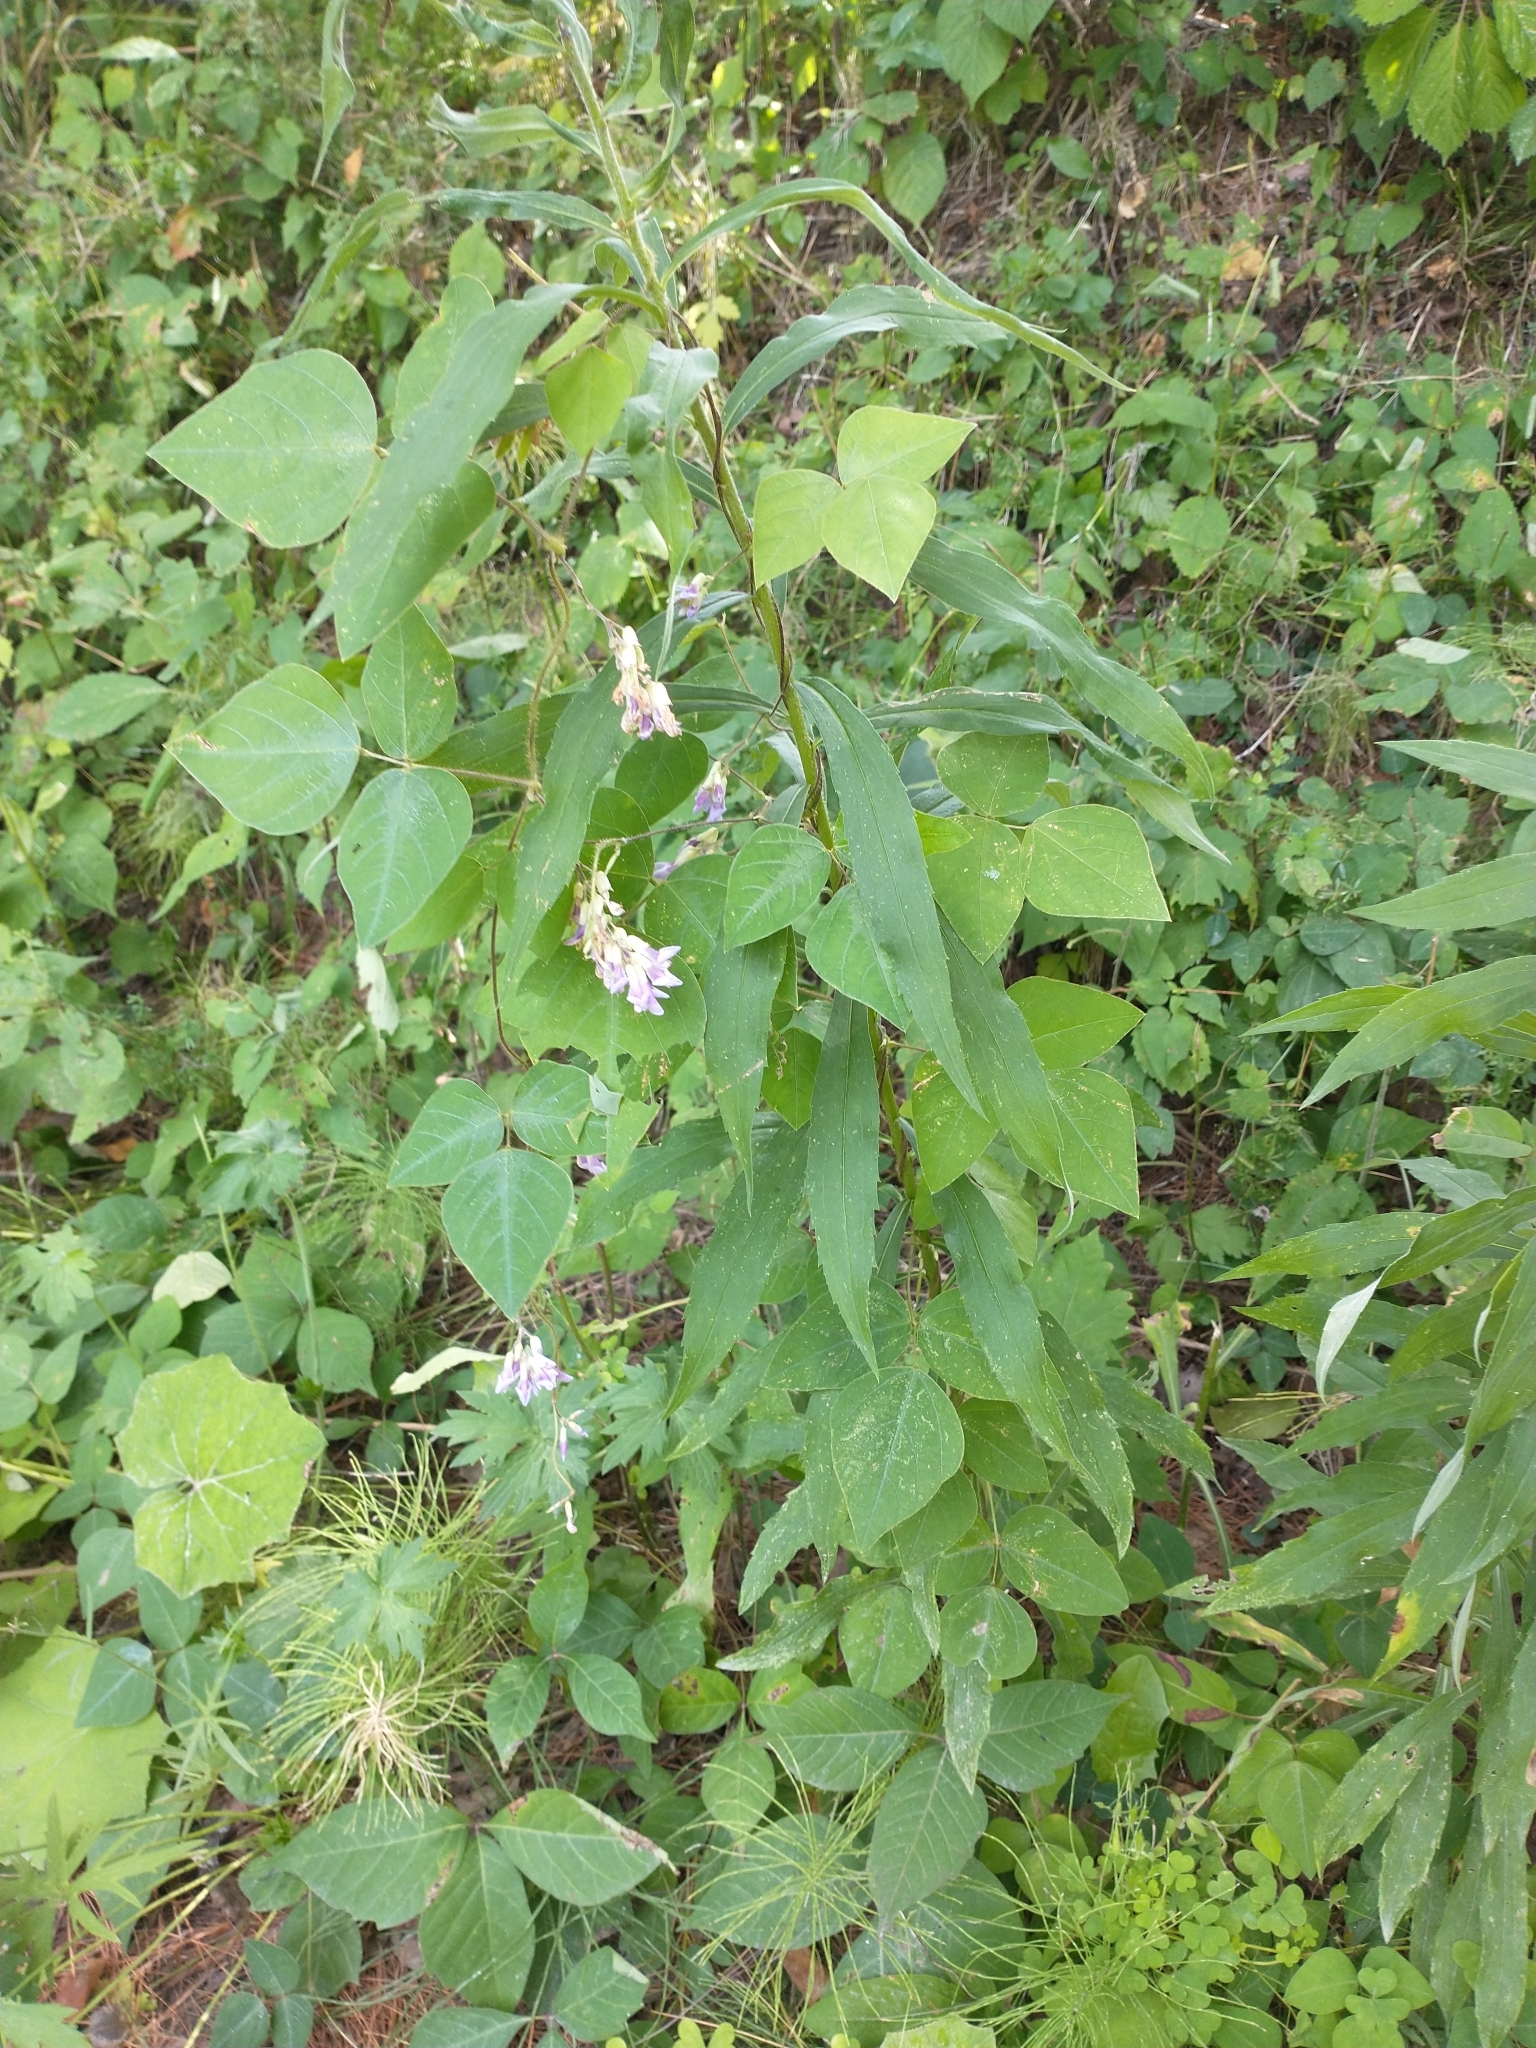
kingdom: Plantae
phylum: Tracheophyta
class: Magnoliopsida
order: Fabales
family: Fabaceae
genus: Amphicarpaea
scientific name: Amphicarpaea bracteata
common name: American hog peanut
